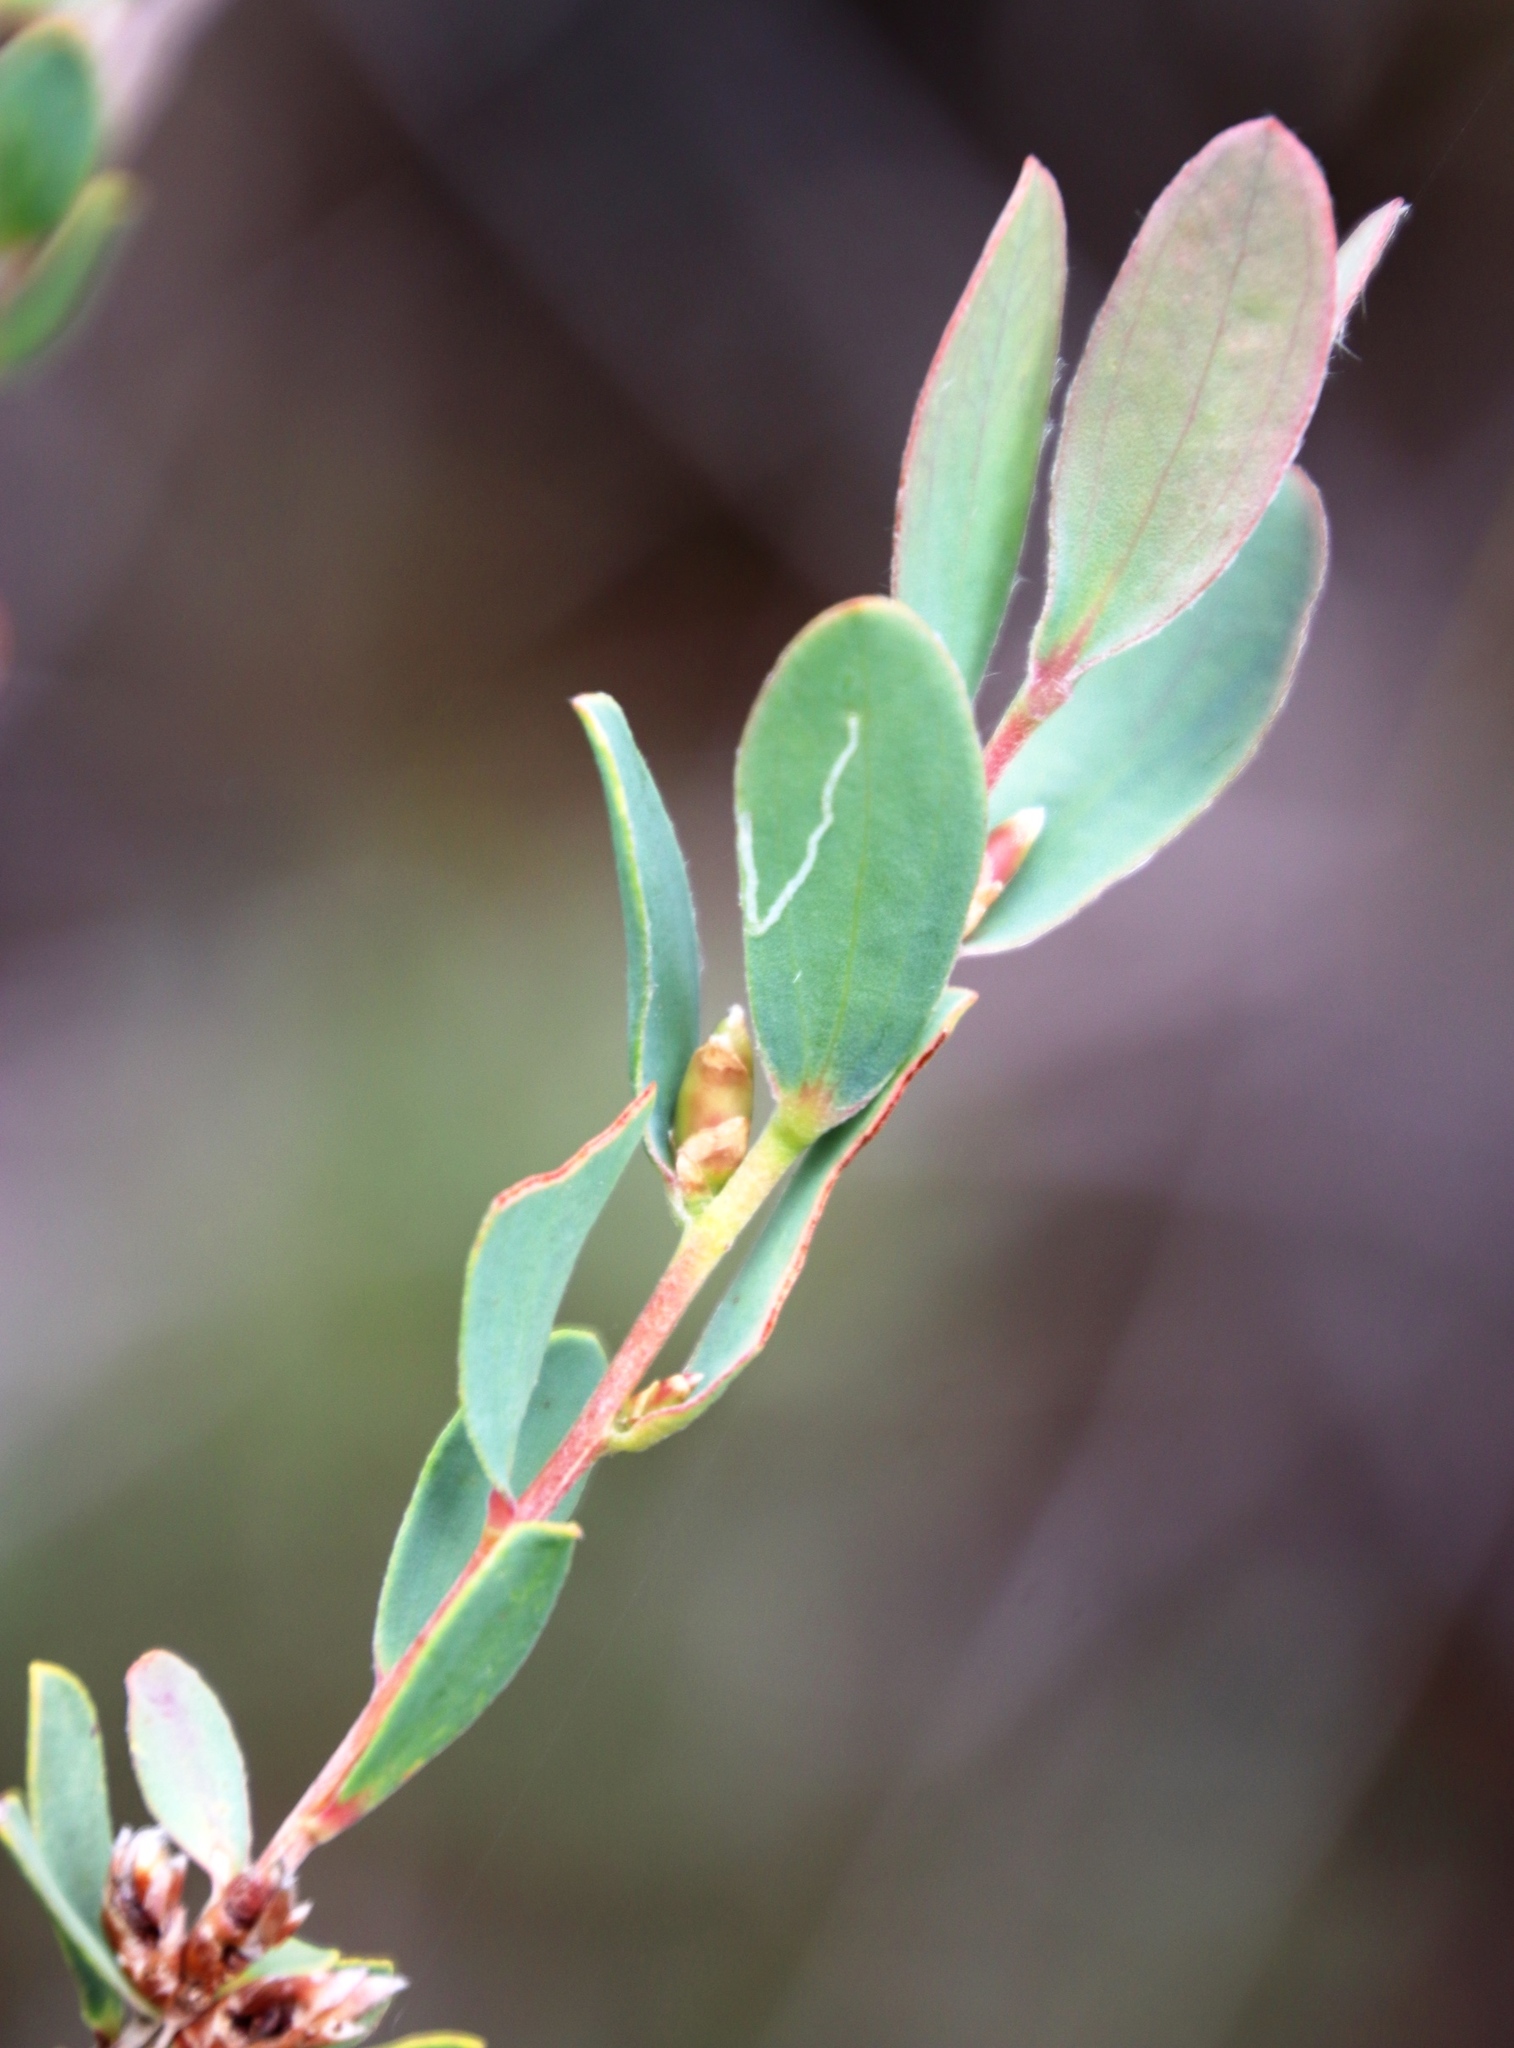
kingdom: Animalia
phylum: Arthropoda
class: Insecta
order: Lepidoptera
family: Gracillariidae
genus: Aristaea
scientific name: Aristaea thalassias
